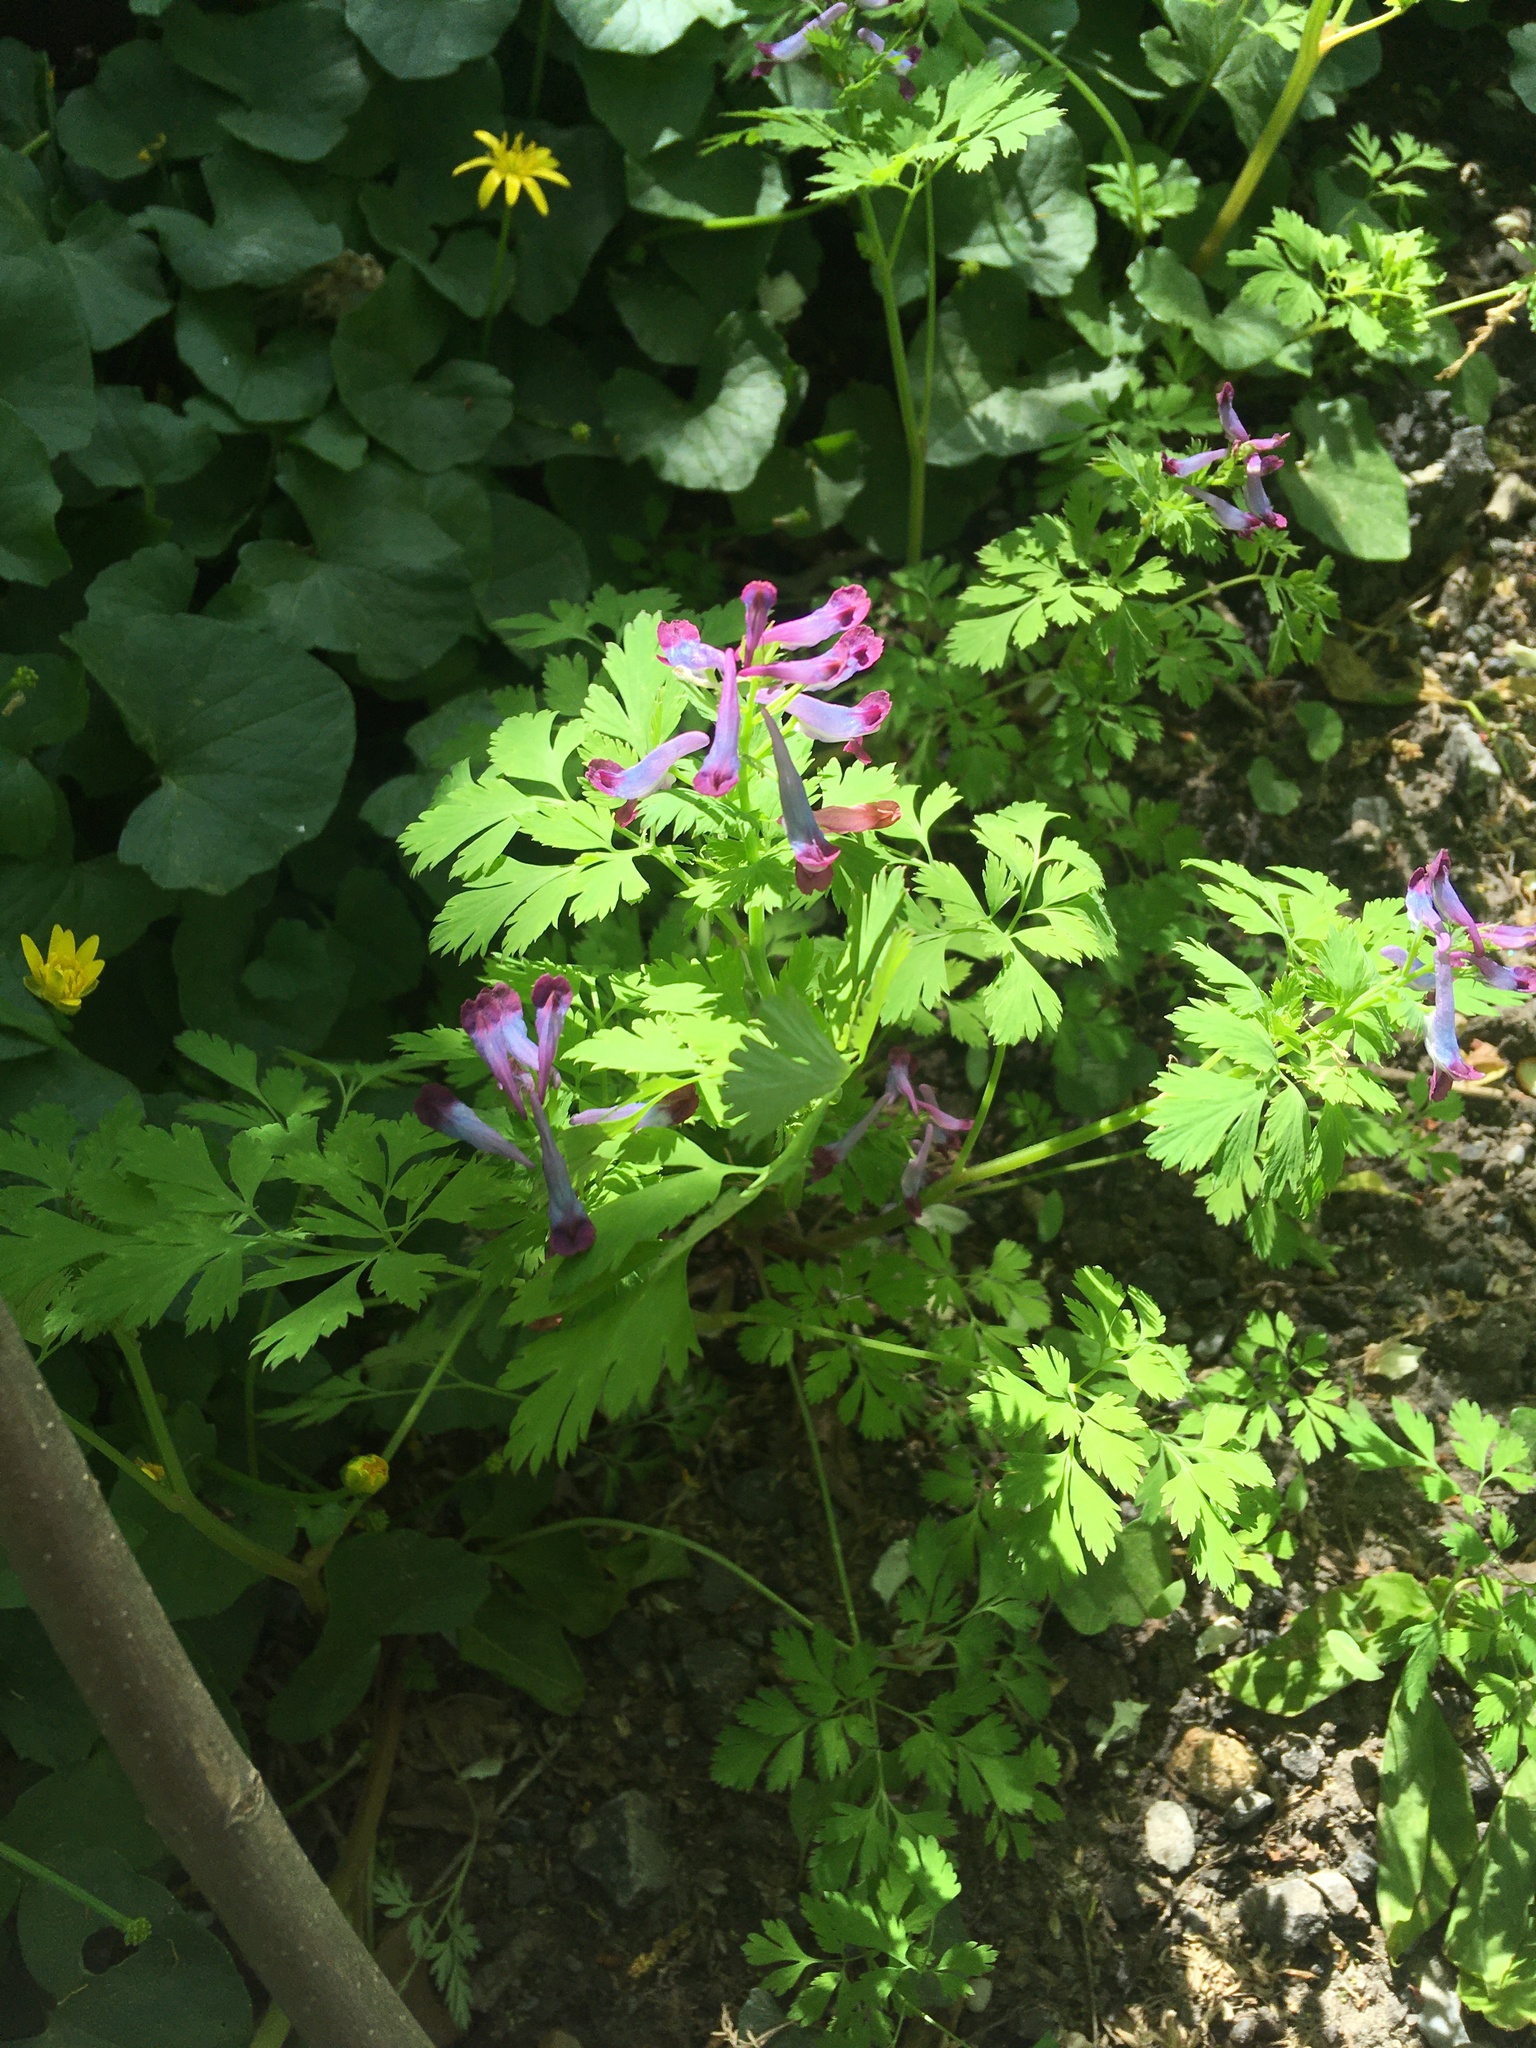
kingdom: Plantae
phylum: Tracheophyta
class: Magnoliopsida
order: Ranunculales
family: Papaveraceae
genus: Corydalis
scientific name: Corydalis incisa
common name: Incised fumewort
